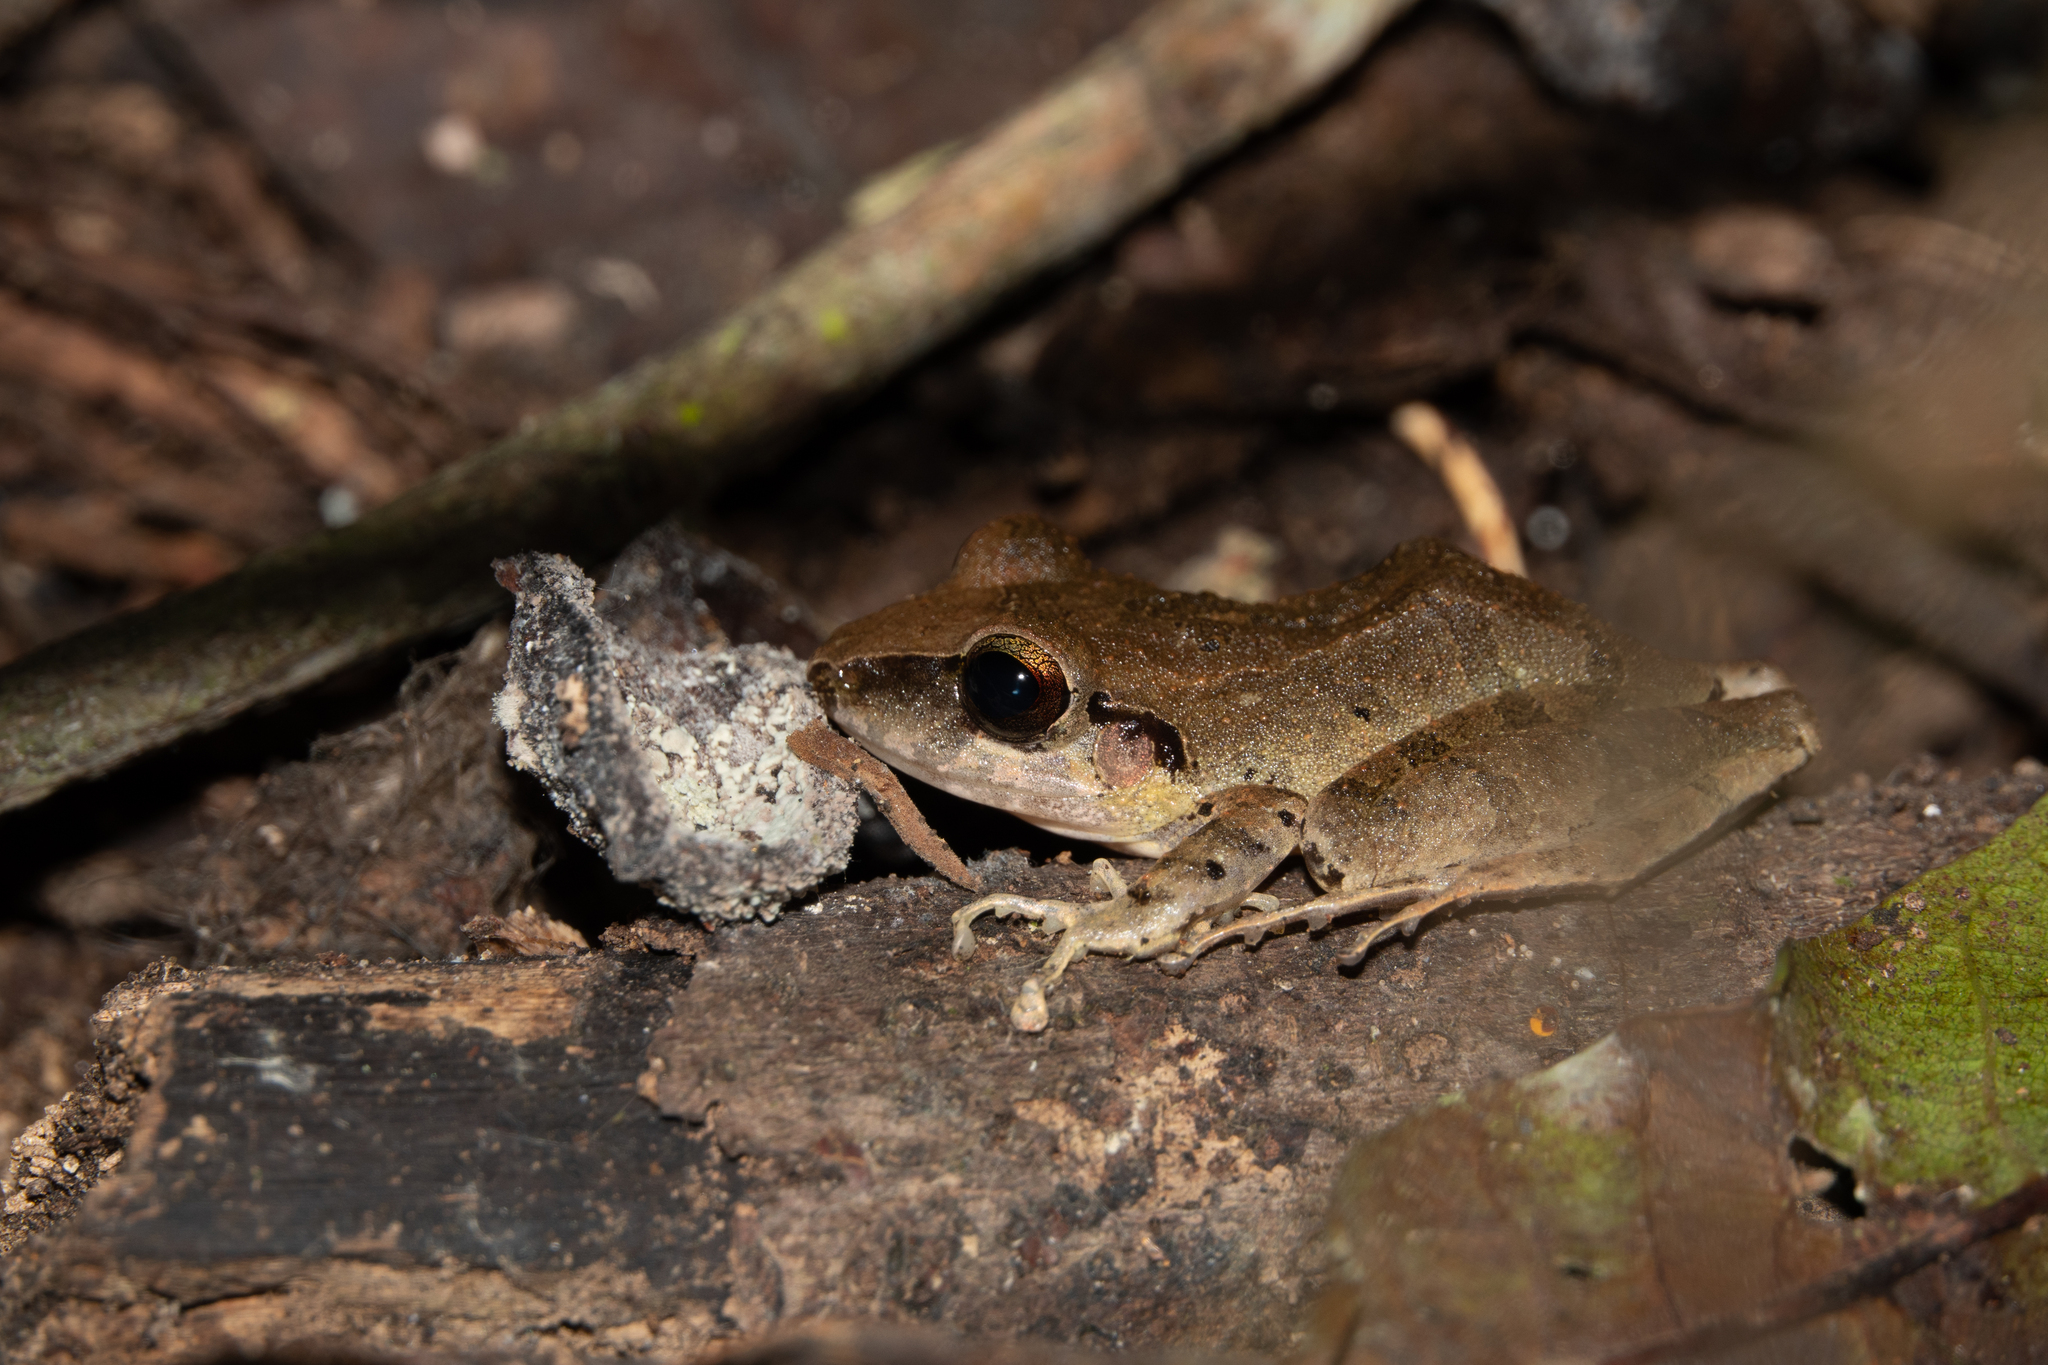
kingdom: Animalia
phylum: Chordata
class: Amphibia
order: Anura
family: Craugastoridae
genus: Pristimantis
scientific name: Pristimantis achatinus
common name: Cachabi robber frog
